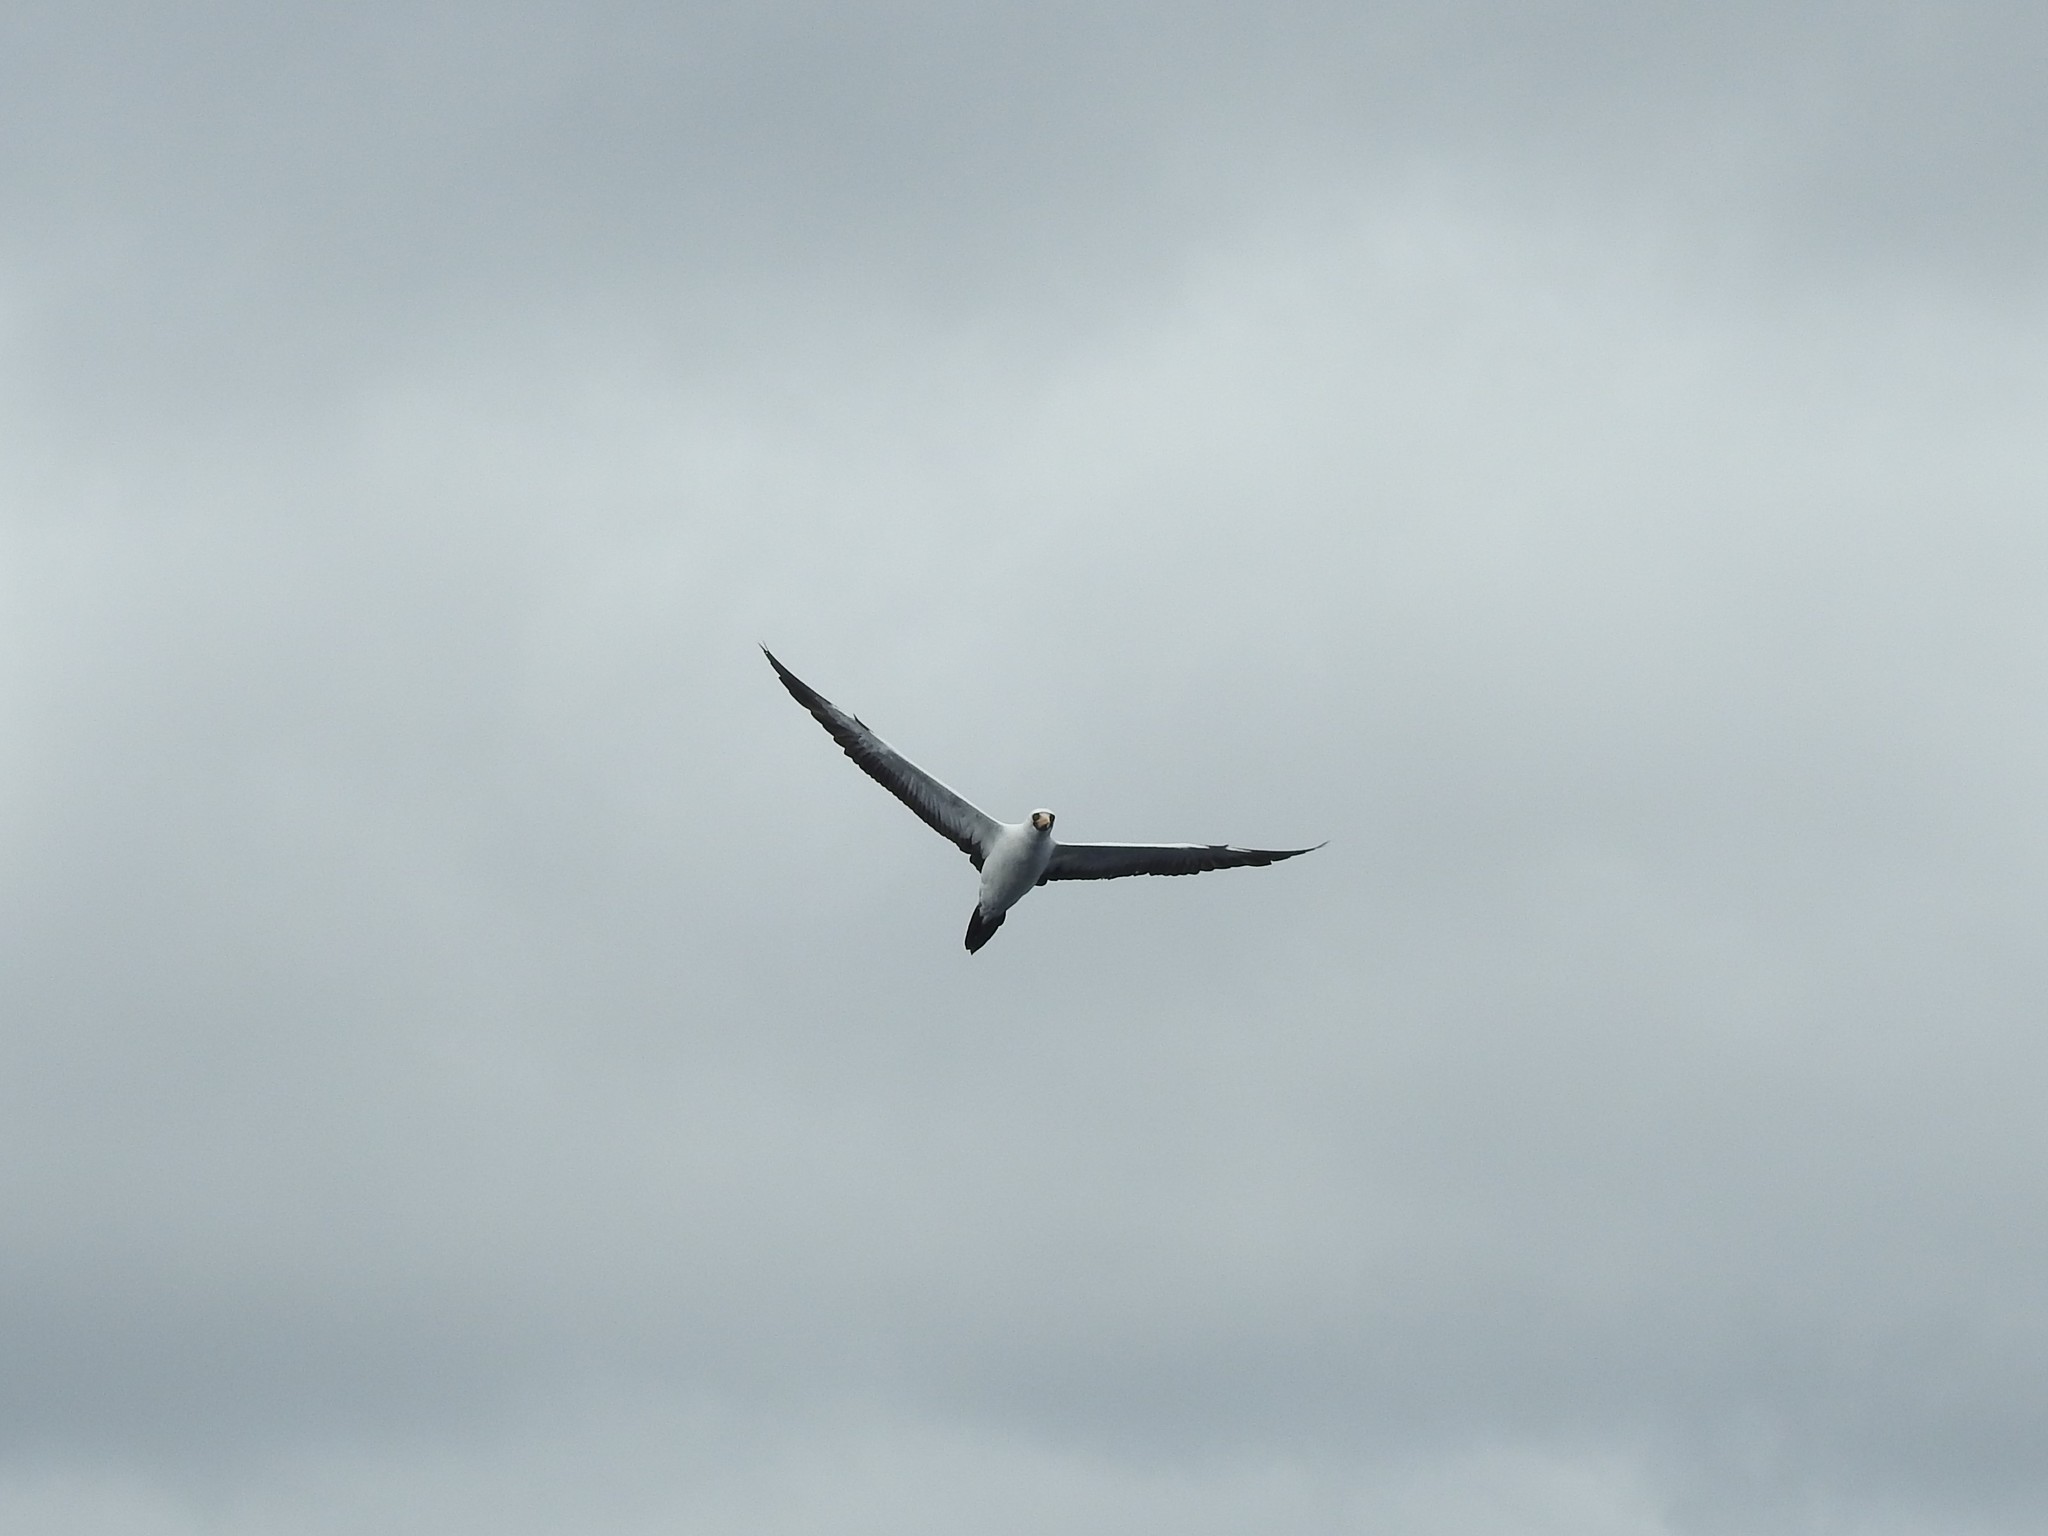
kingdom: Animalia
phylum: Chordata
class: Aves
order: Suliformes
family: Sulidae
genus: Sula
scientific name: Sula granti
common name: Nazca booby
